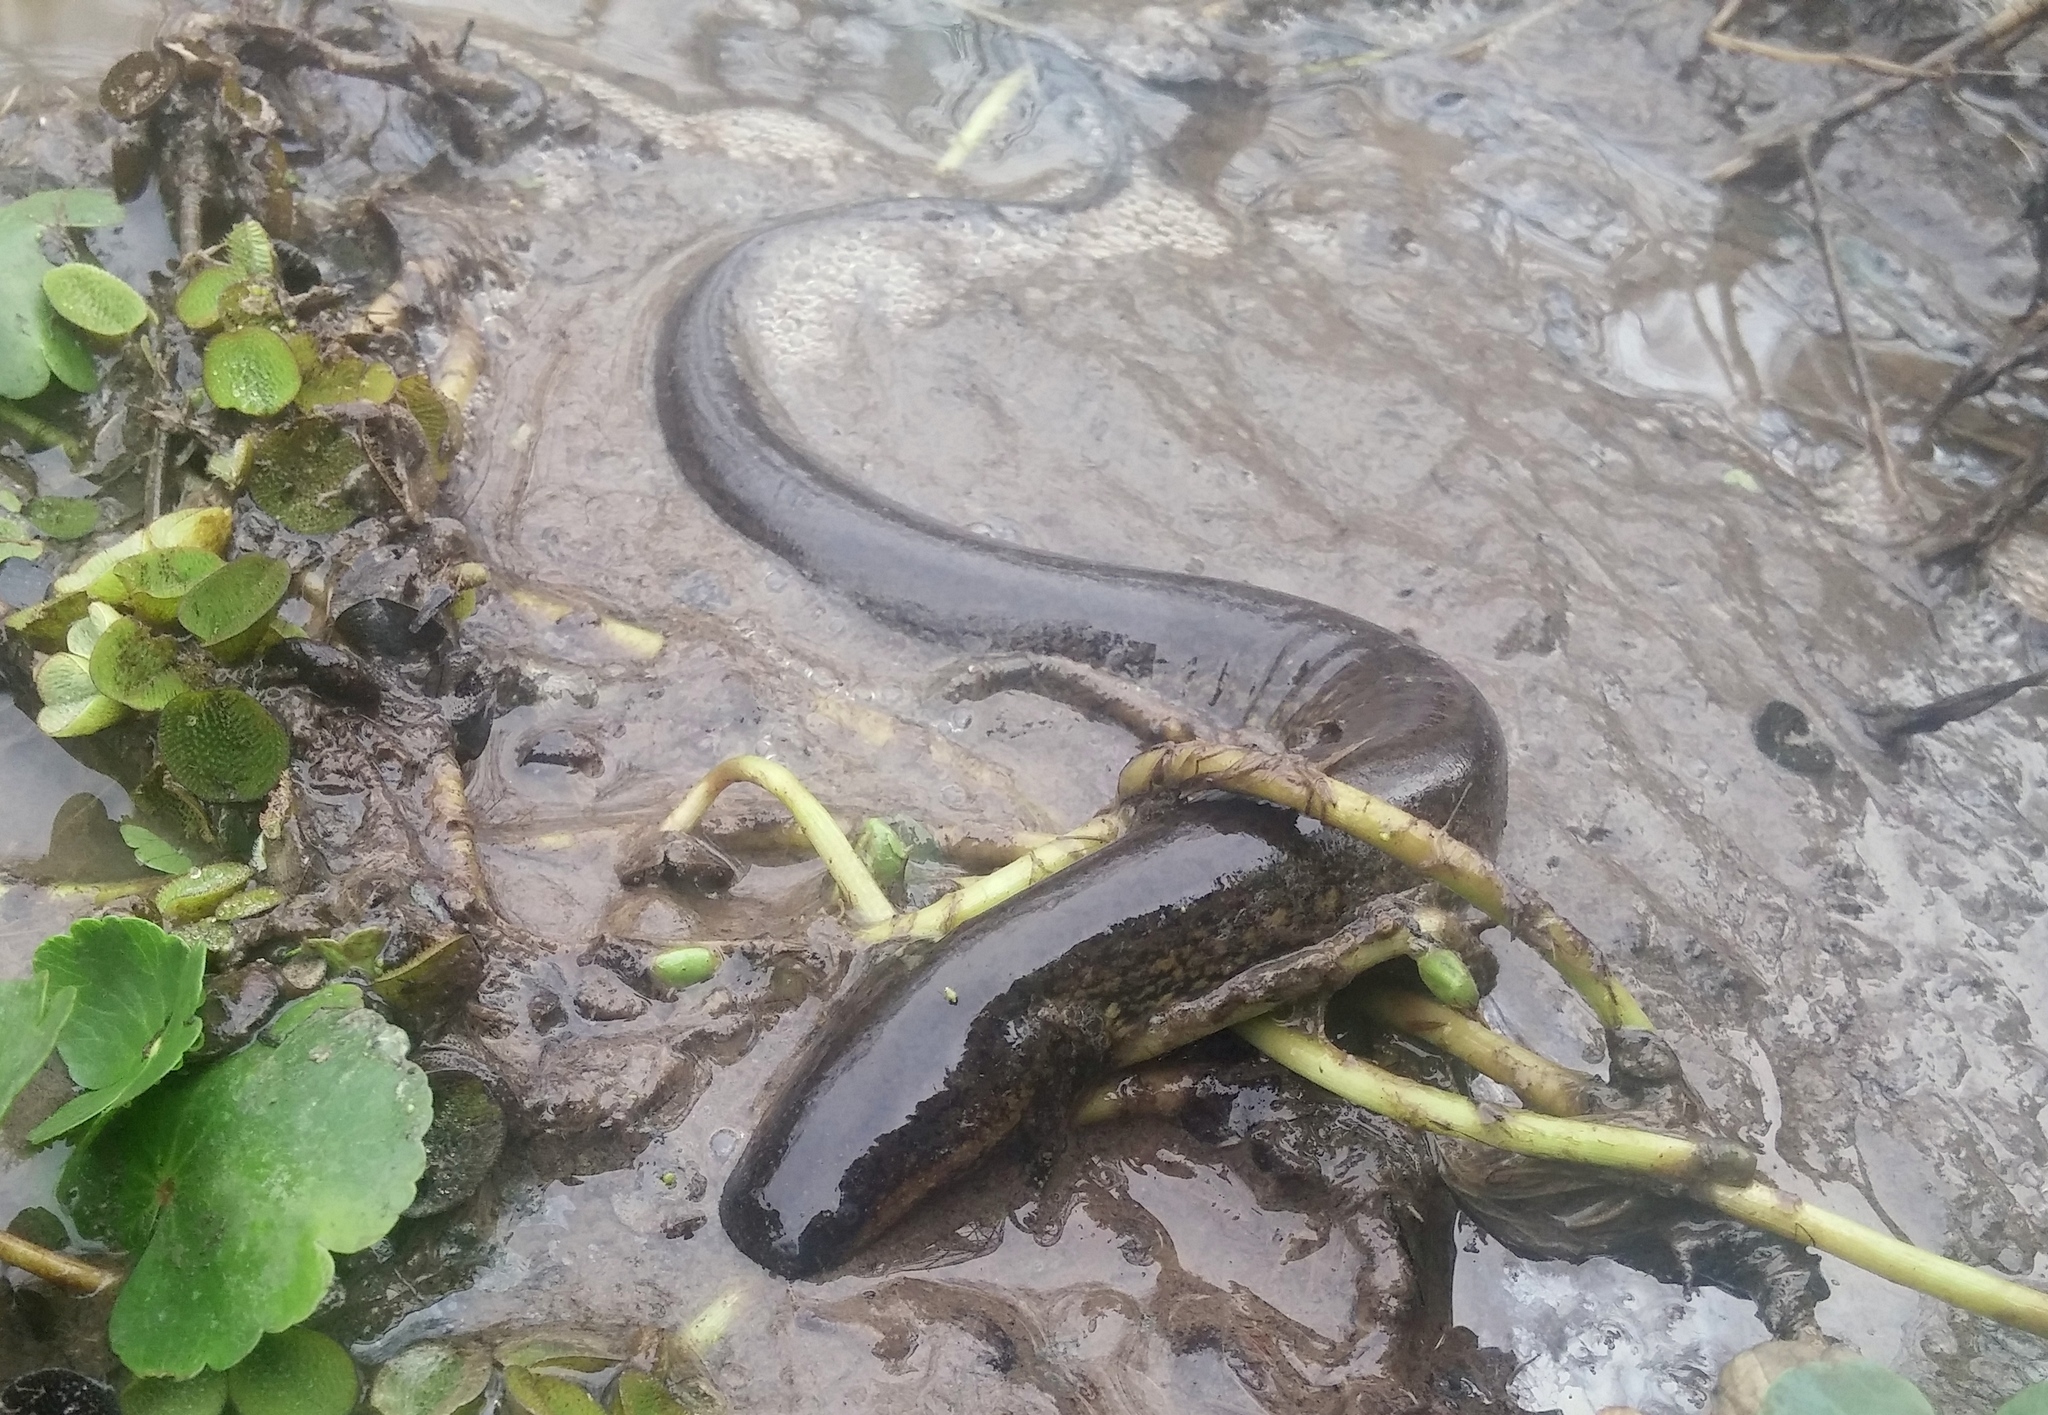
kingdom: Animalia
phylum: Chordata
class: Amphibia
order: Caudata
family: Sirenidae
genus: Siren
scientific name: Siren intermedia
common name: Lesser siren
